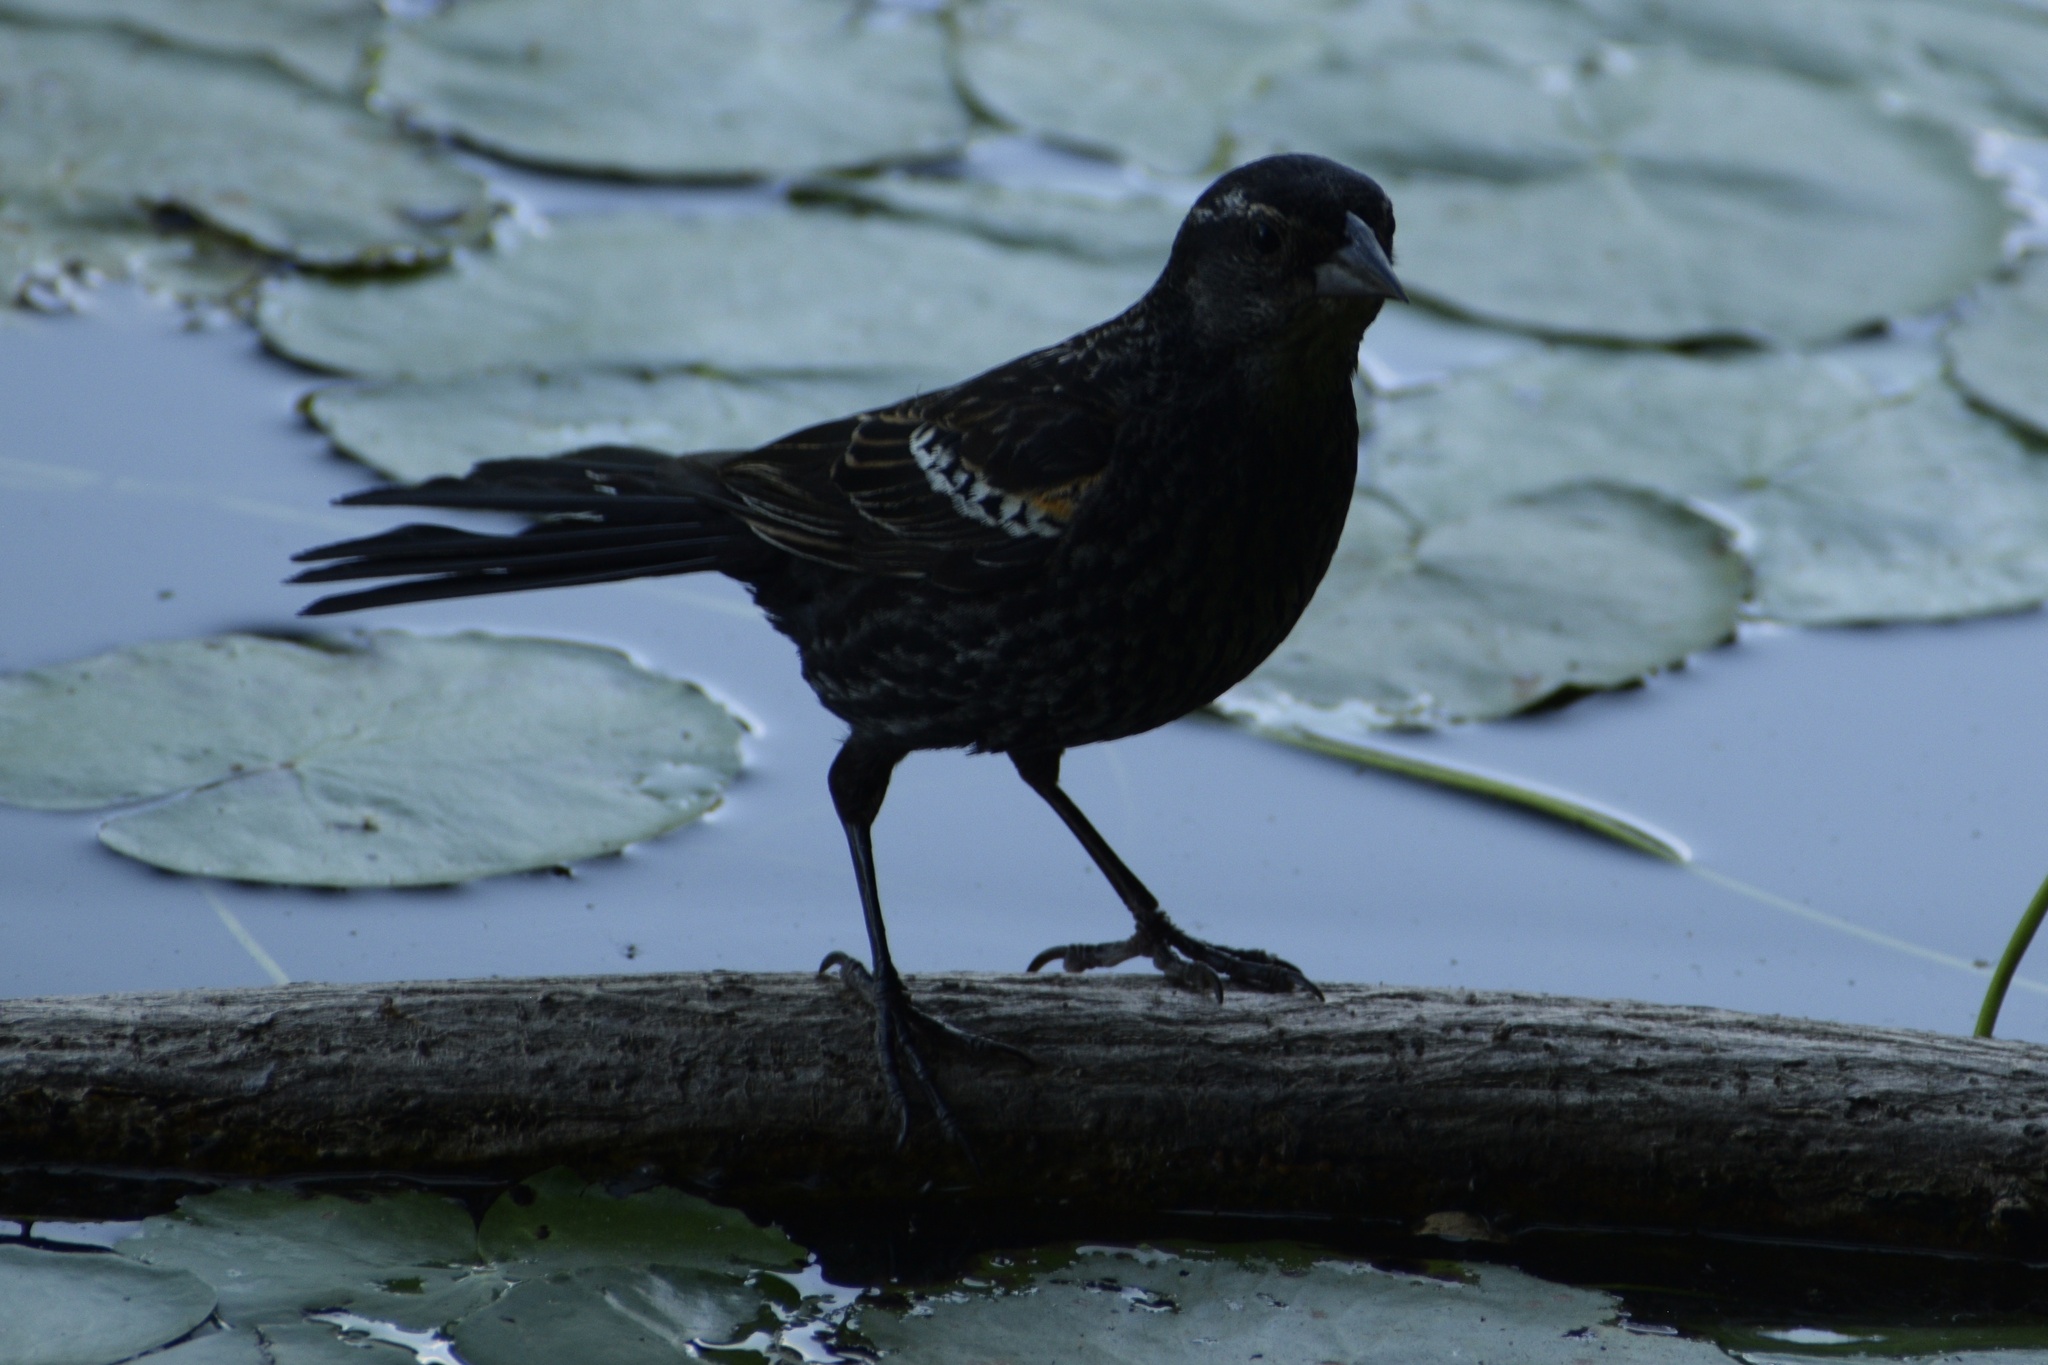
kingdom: Animalia
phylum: Chordata
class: Aves
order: Passeriformes
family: Icteridae
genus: Agelaius
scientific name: Agelaius phoeniceus
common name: Red-winged blackbird
